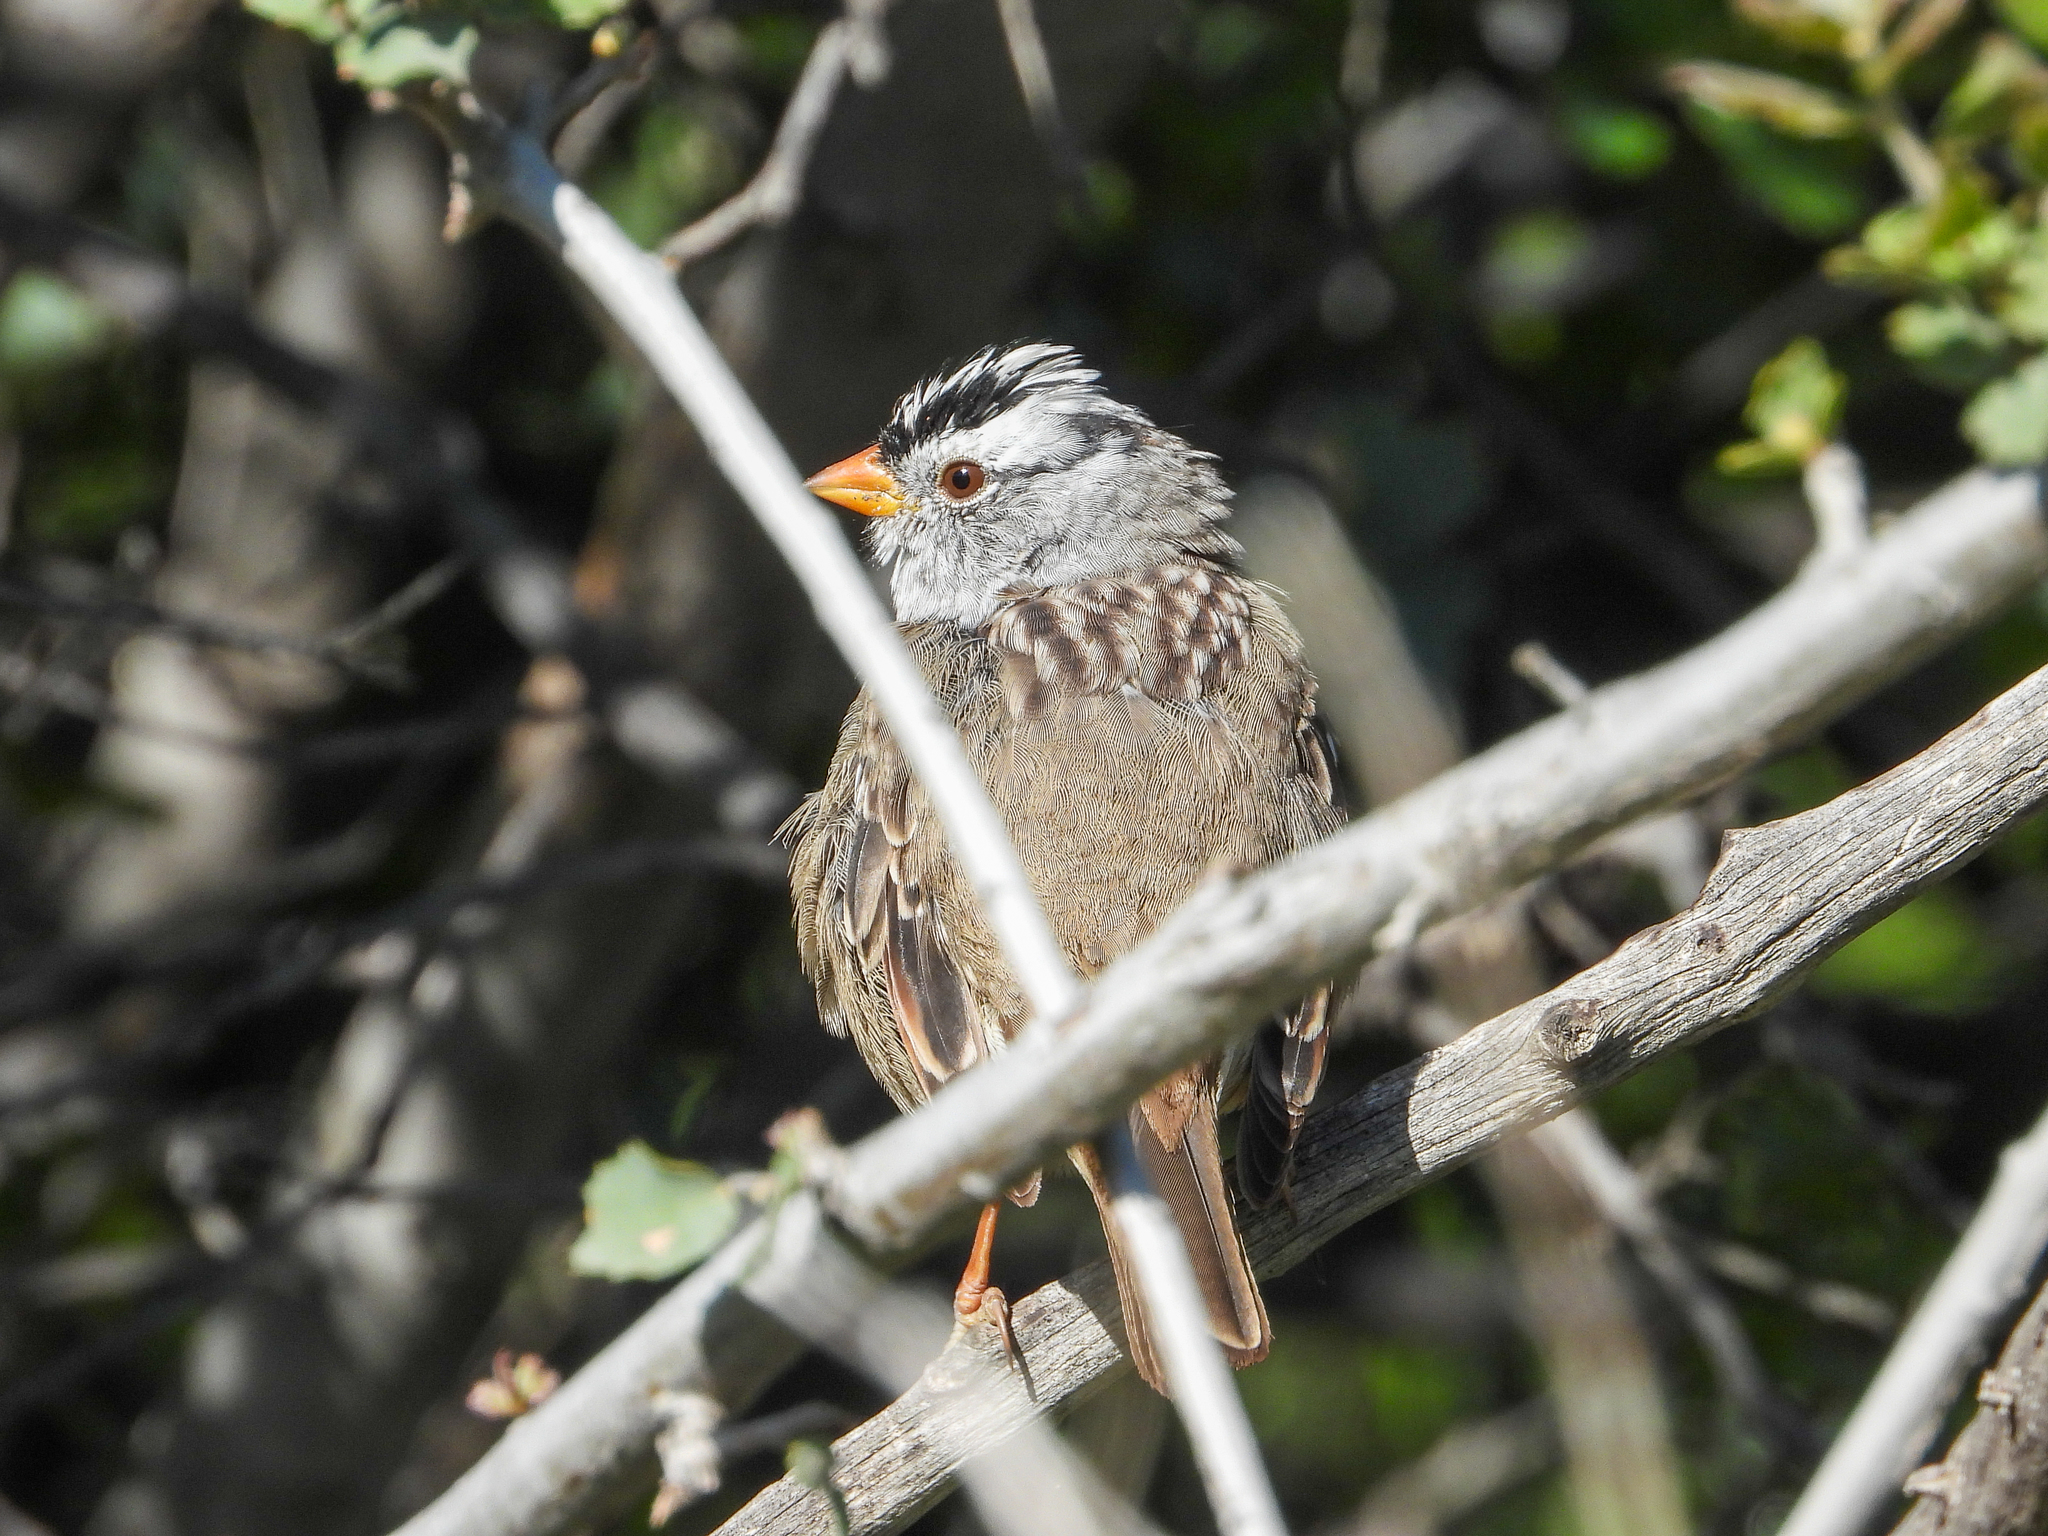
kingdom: Animalia
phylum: Chordata
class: Aves
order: Passeriformes
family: Passerellidae
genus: Zonotrichia
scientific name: Zonotrichia leucophrys
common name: White-crowned sparrow
